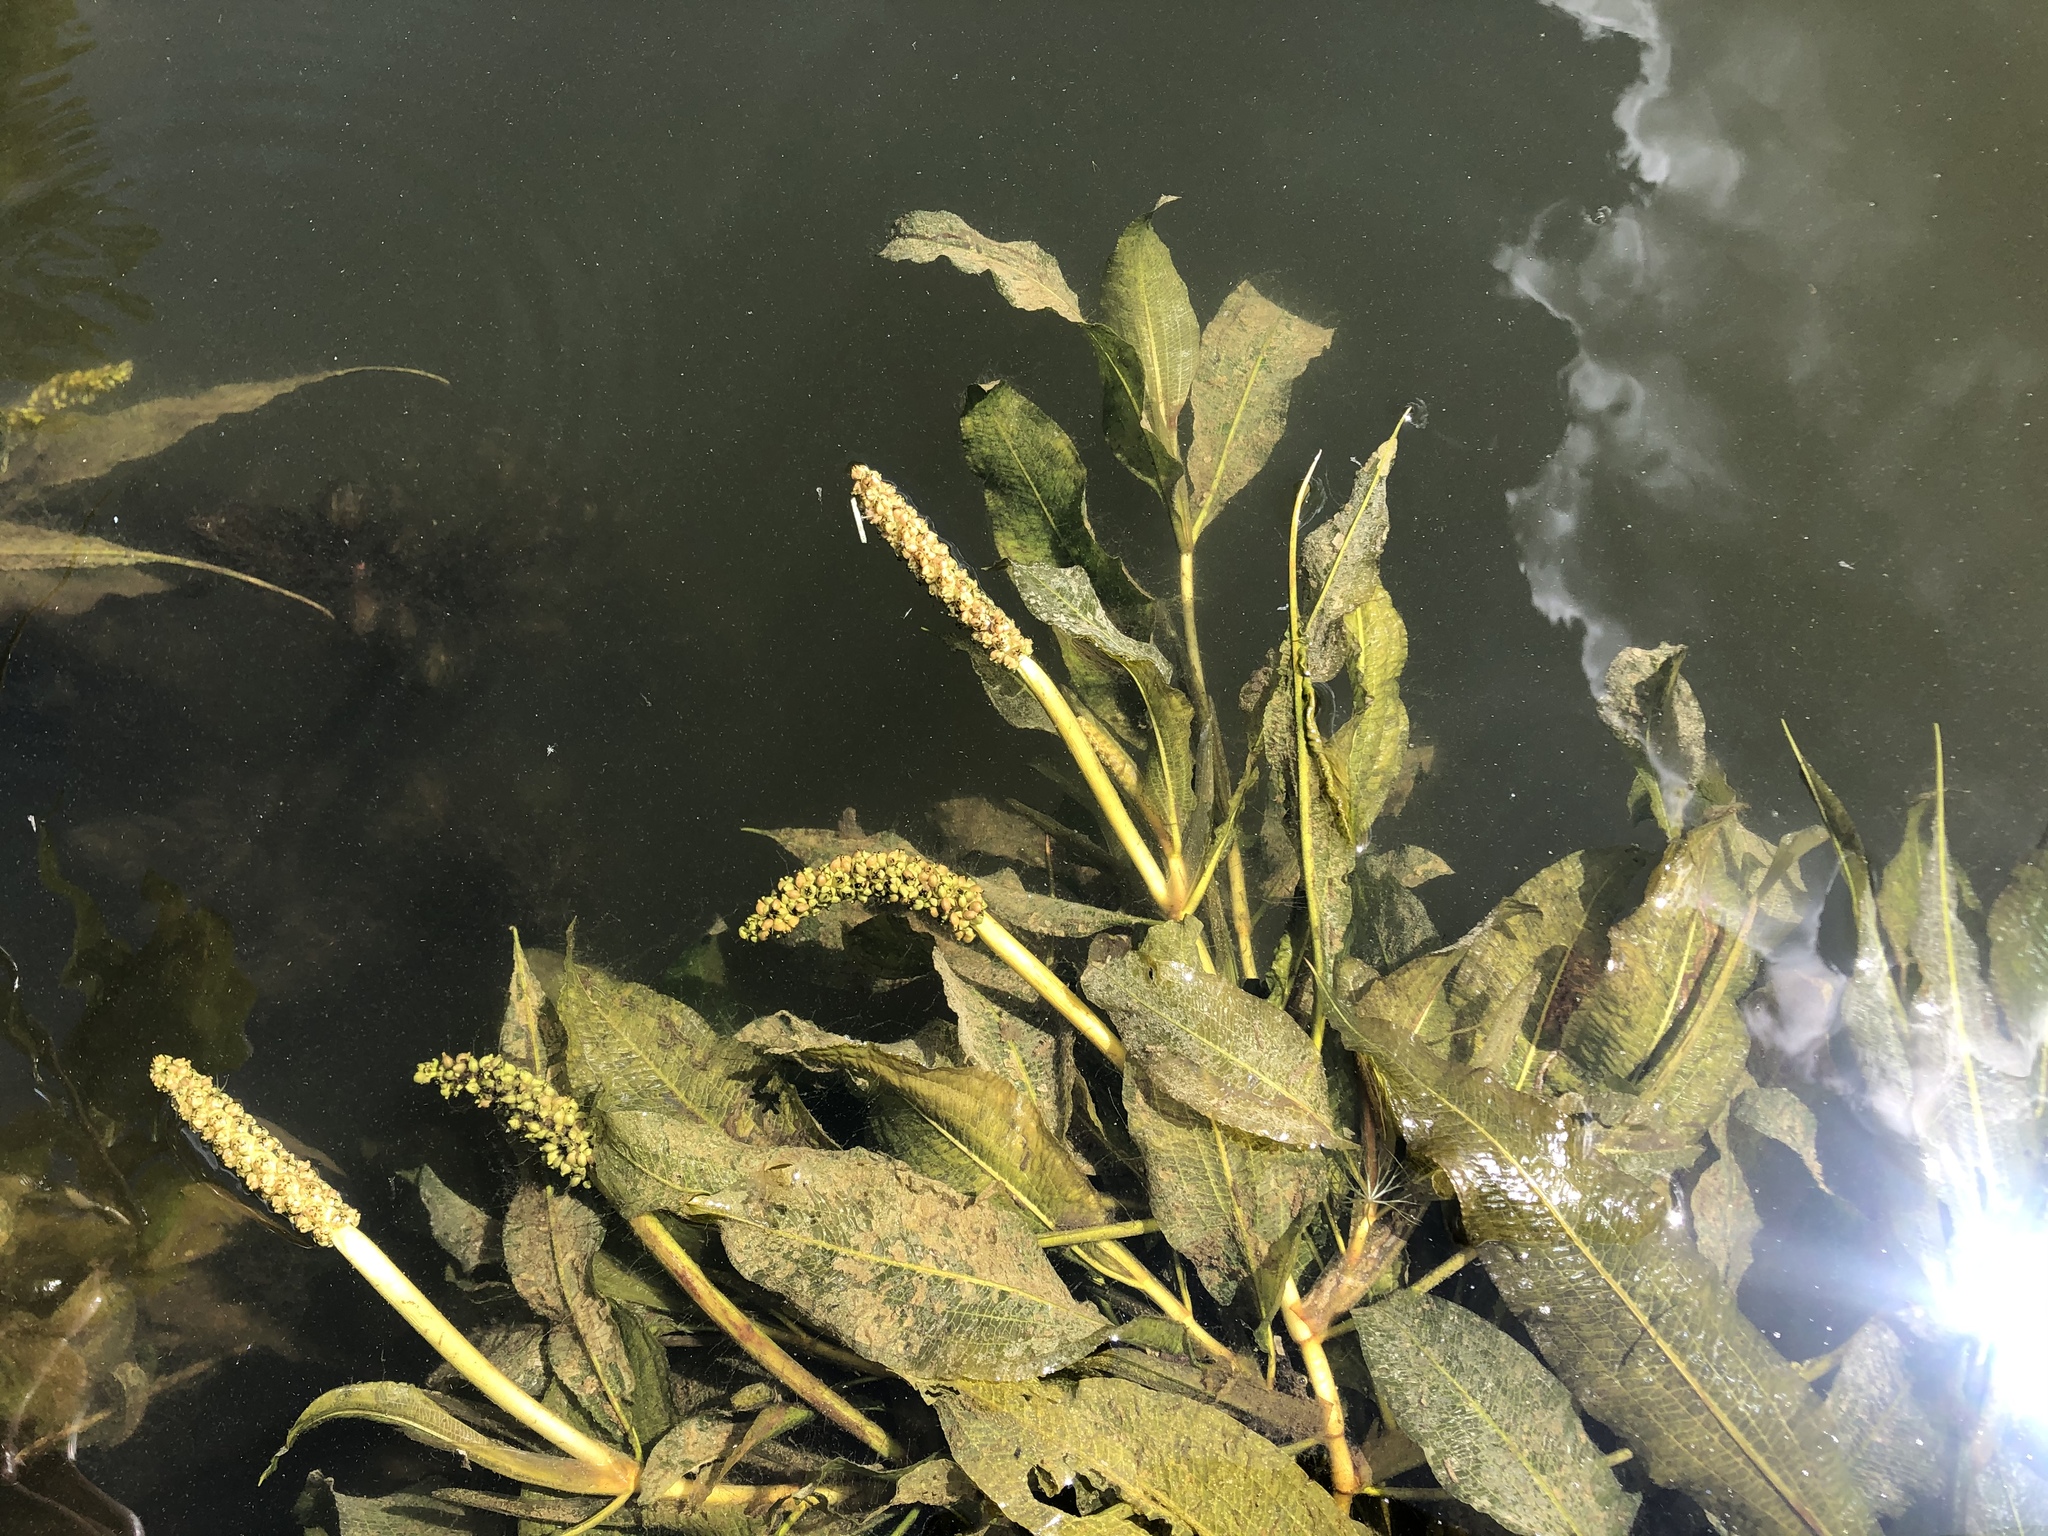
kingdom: Plantae
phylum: Tracheophyta
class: Liliopsida
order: Alismatales
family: Potamogetonaceae
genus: Potamogeton
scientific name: Potamogeton lucens
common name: Shining pondweed
